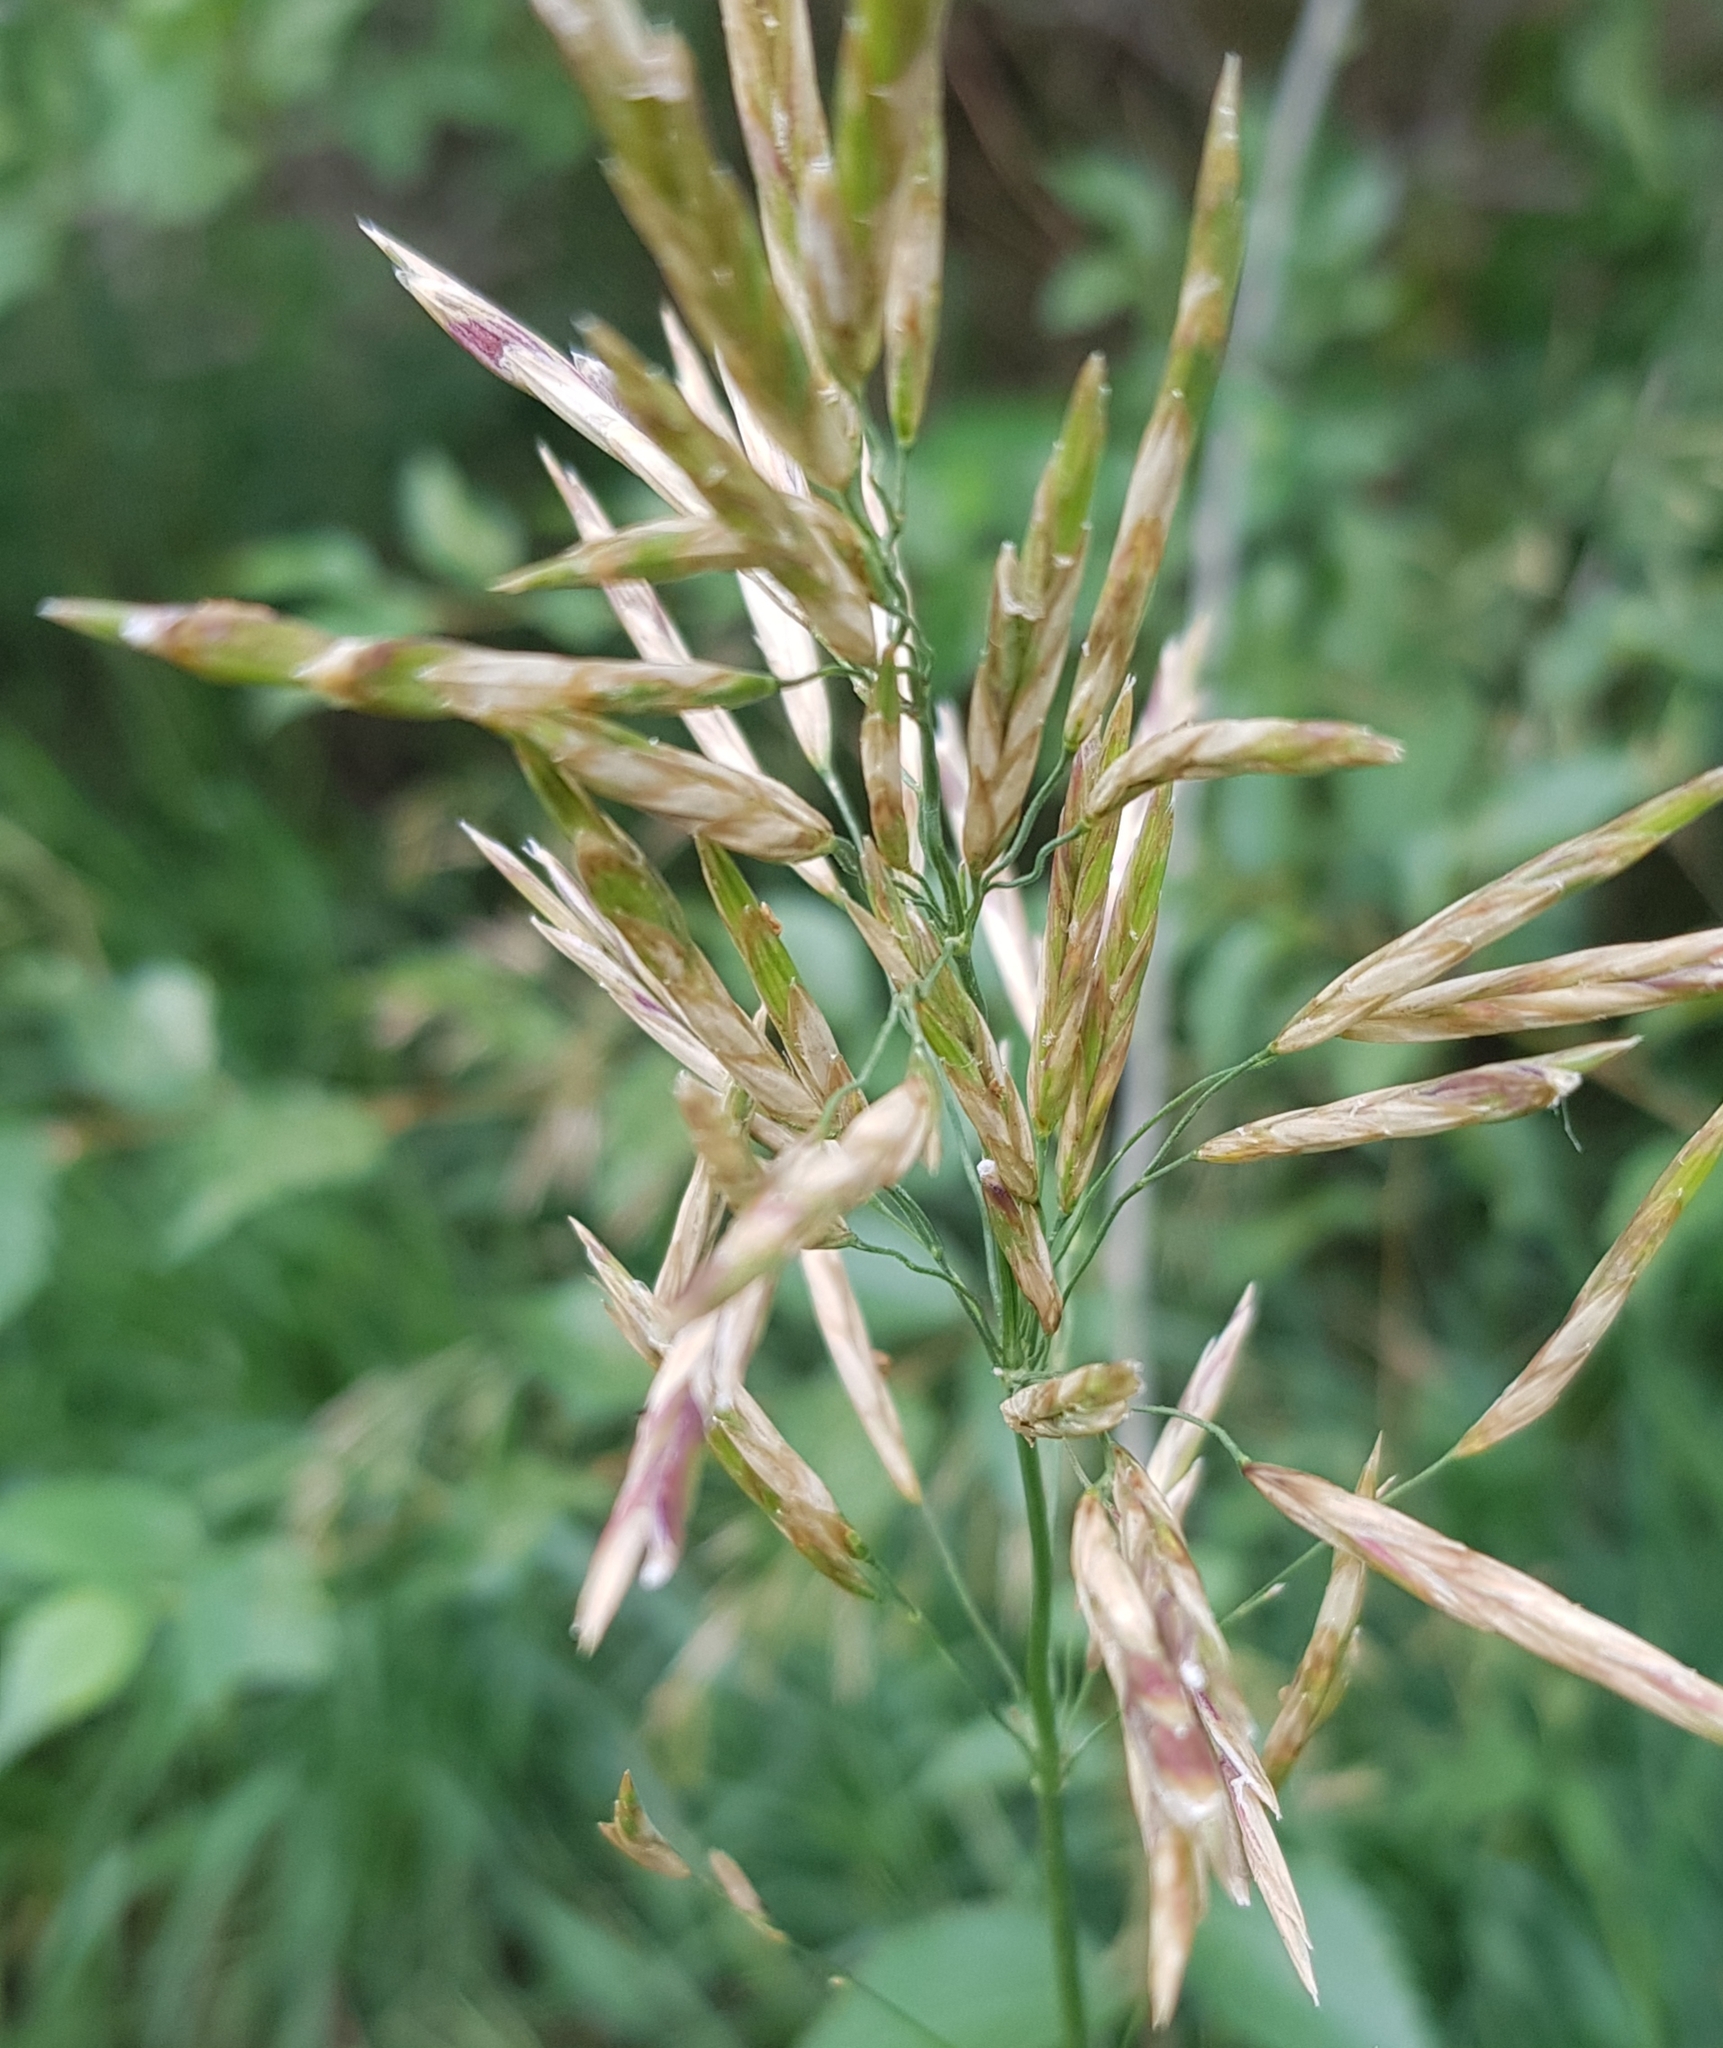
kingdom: Plantae
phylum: Tracheophyta
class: Liliopsida
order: Poales
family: Poaceae
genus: Bromus
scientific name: Bromus inermis
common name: Smooth brome
